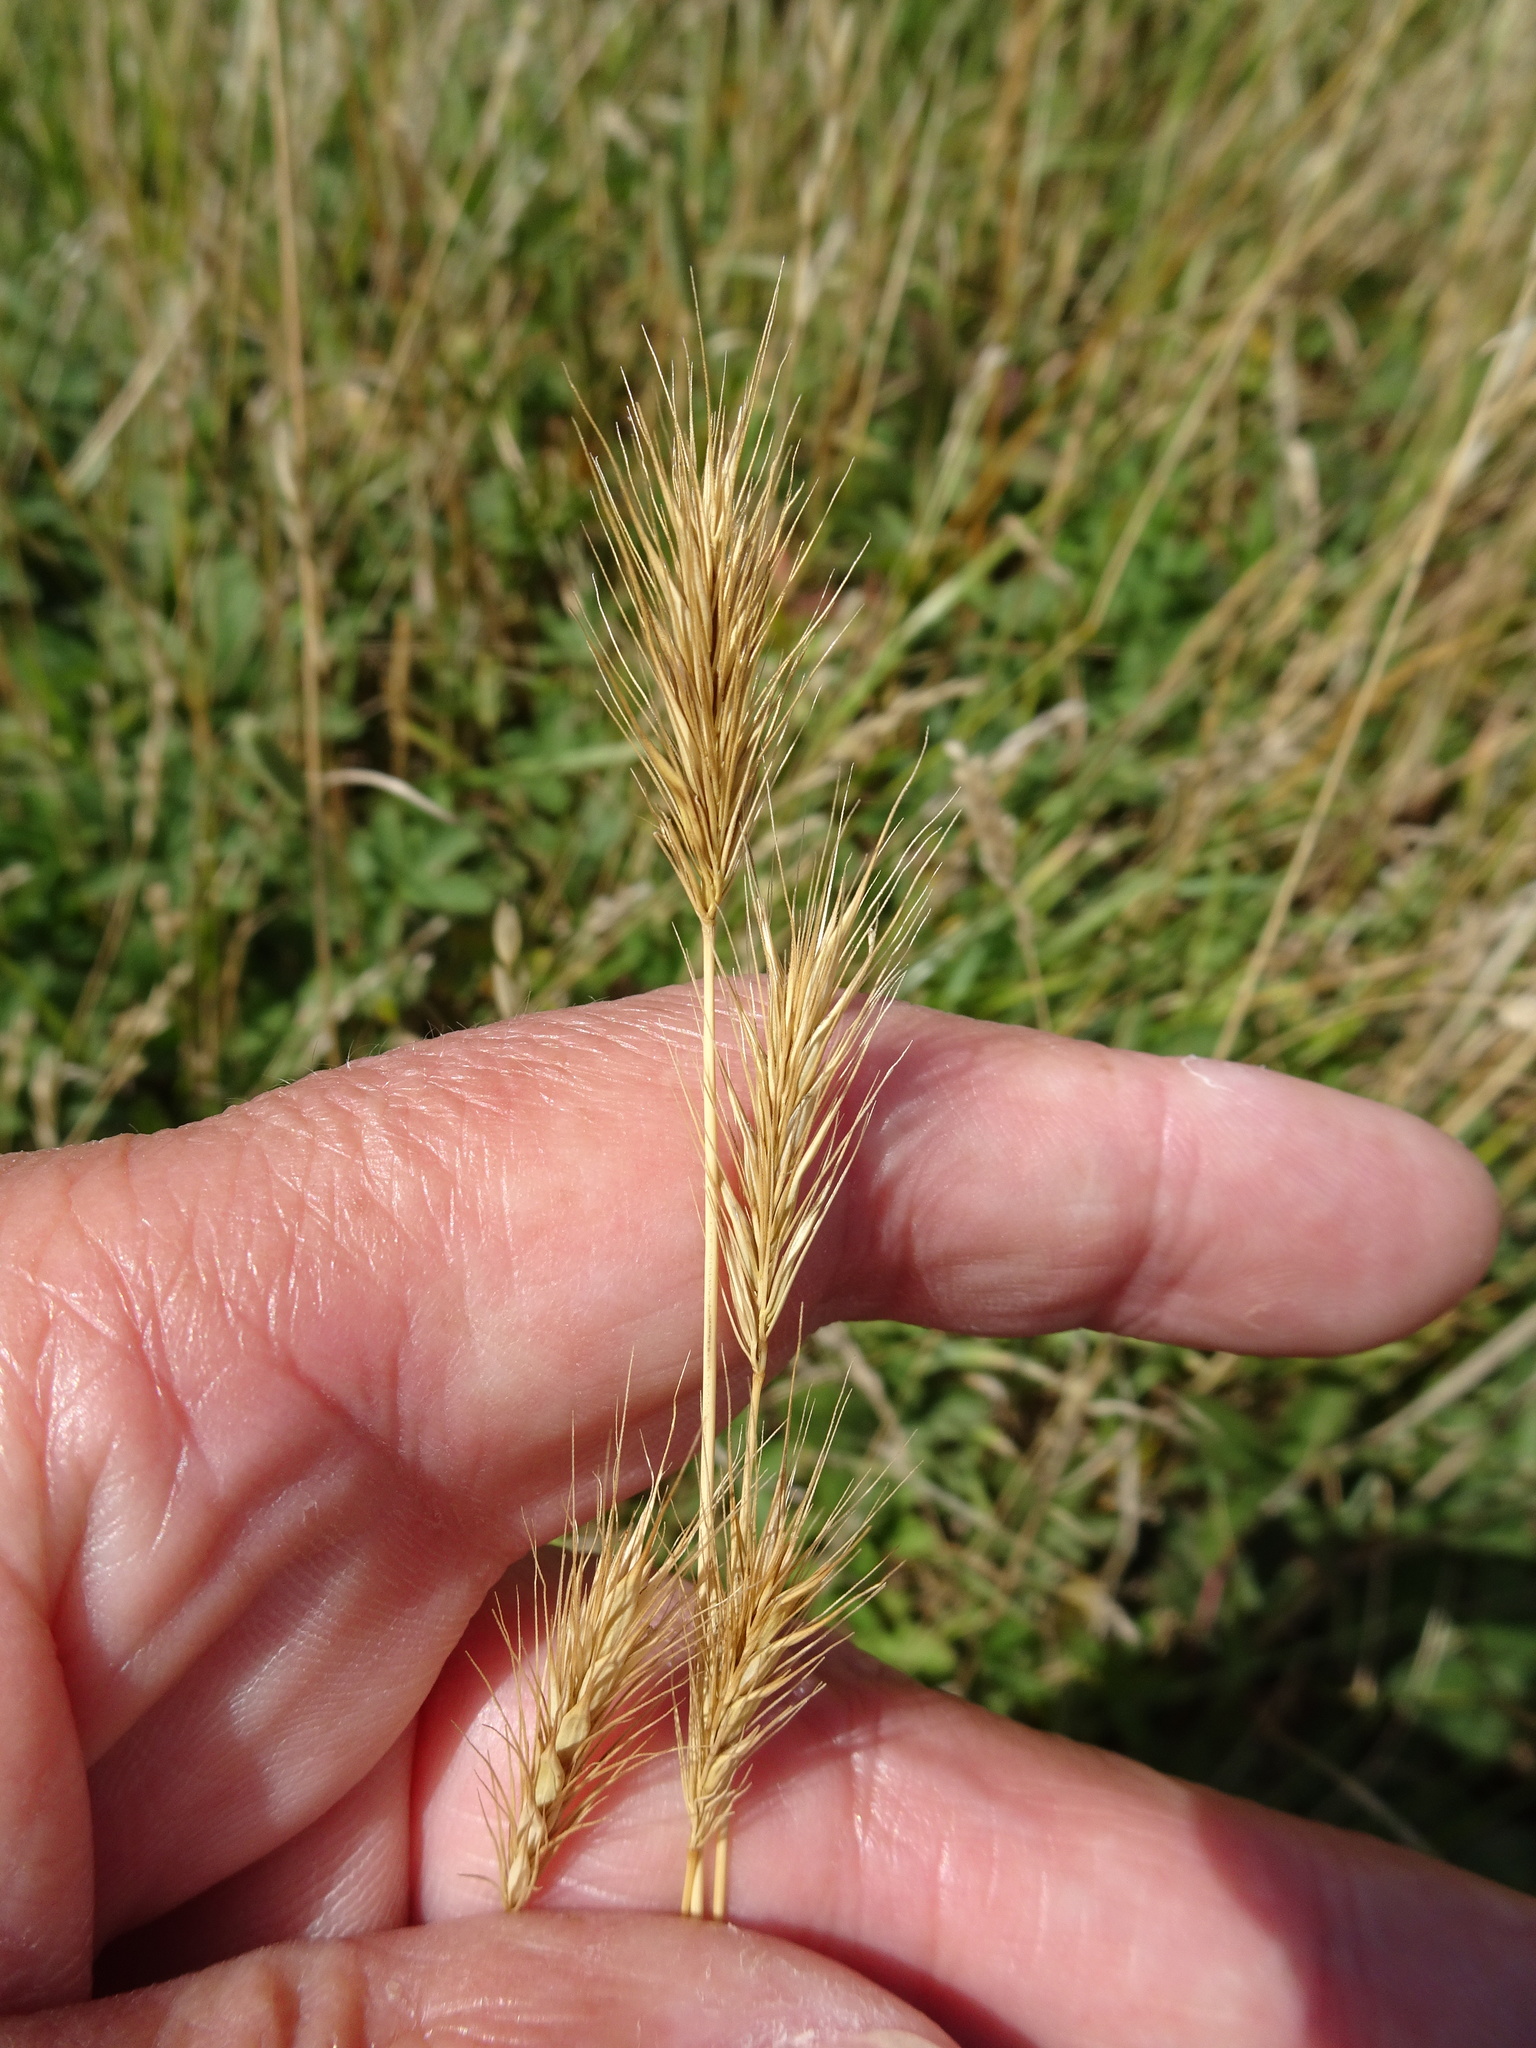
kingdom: Plantae
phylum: Tracheophyta
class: Liliopsida
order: Poales
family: Poaceae
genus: Hordeum
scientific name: Hordeum secalinum
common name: Meadow barley
